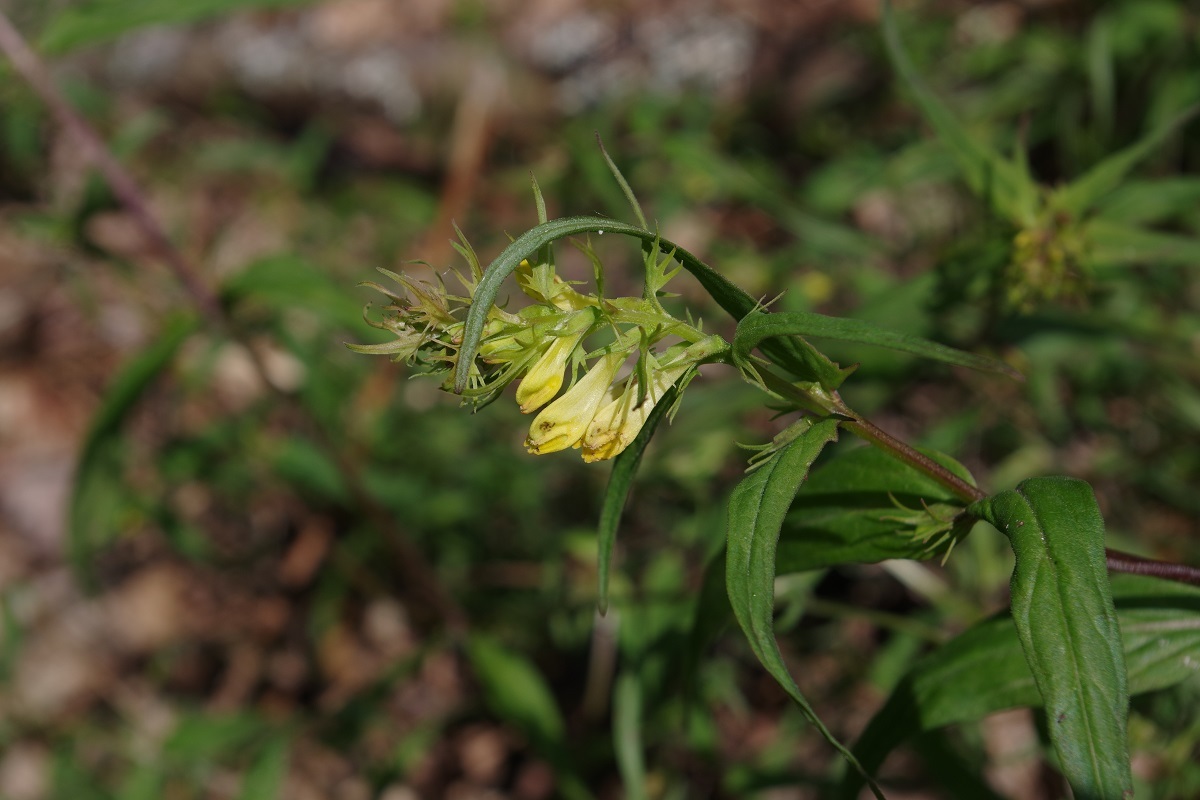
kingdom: Plantae
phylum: Tracheophyta
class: Magnoliopsida
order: Lamiales
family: Orobanchaceae
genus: Melampyrum
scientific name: Melampyrum pratense
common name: Common cow-wheat
